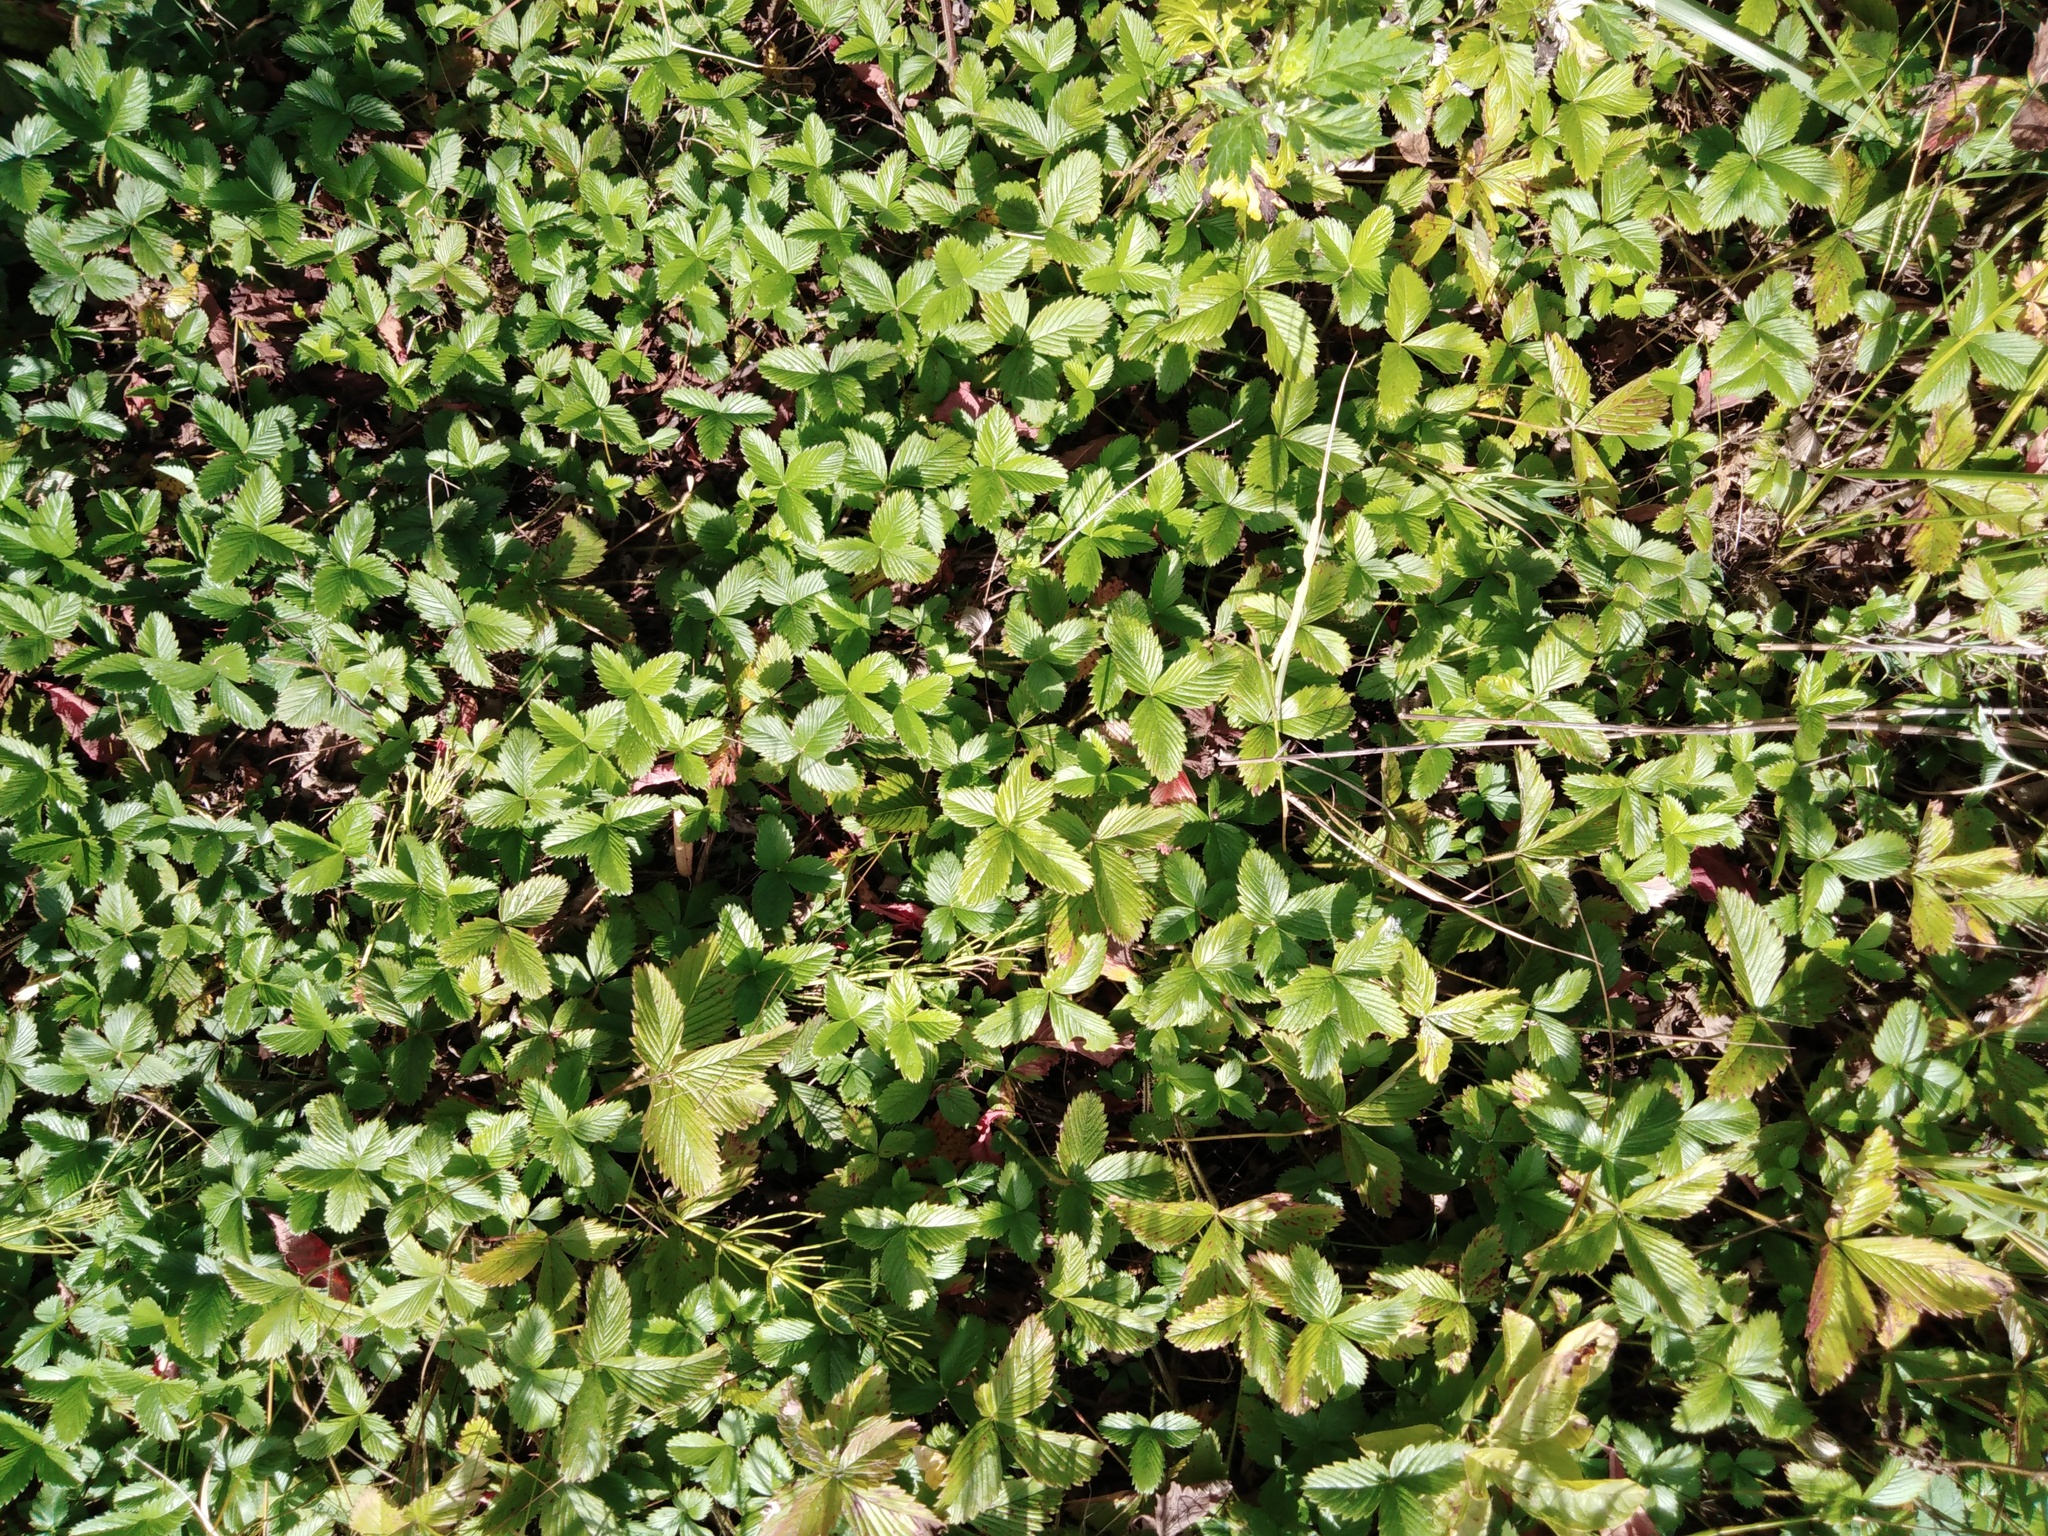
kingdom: Plantae
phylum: Tracheophyta
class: Magnoliopsida
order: Rosales
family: Rosaceae
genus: Fragaria
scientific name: Fragaria viridis
